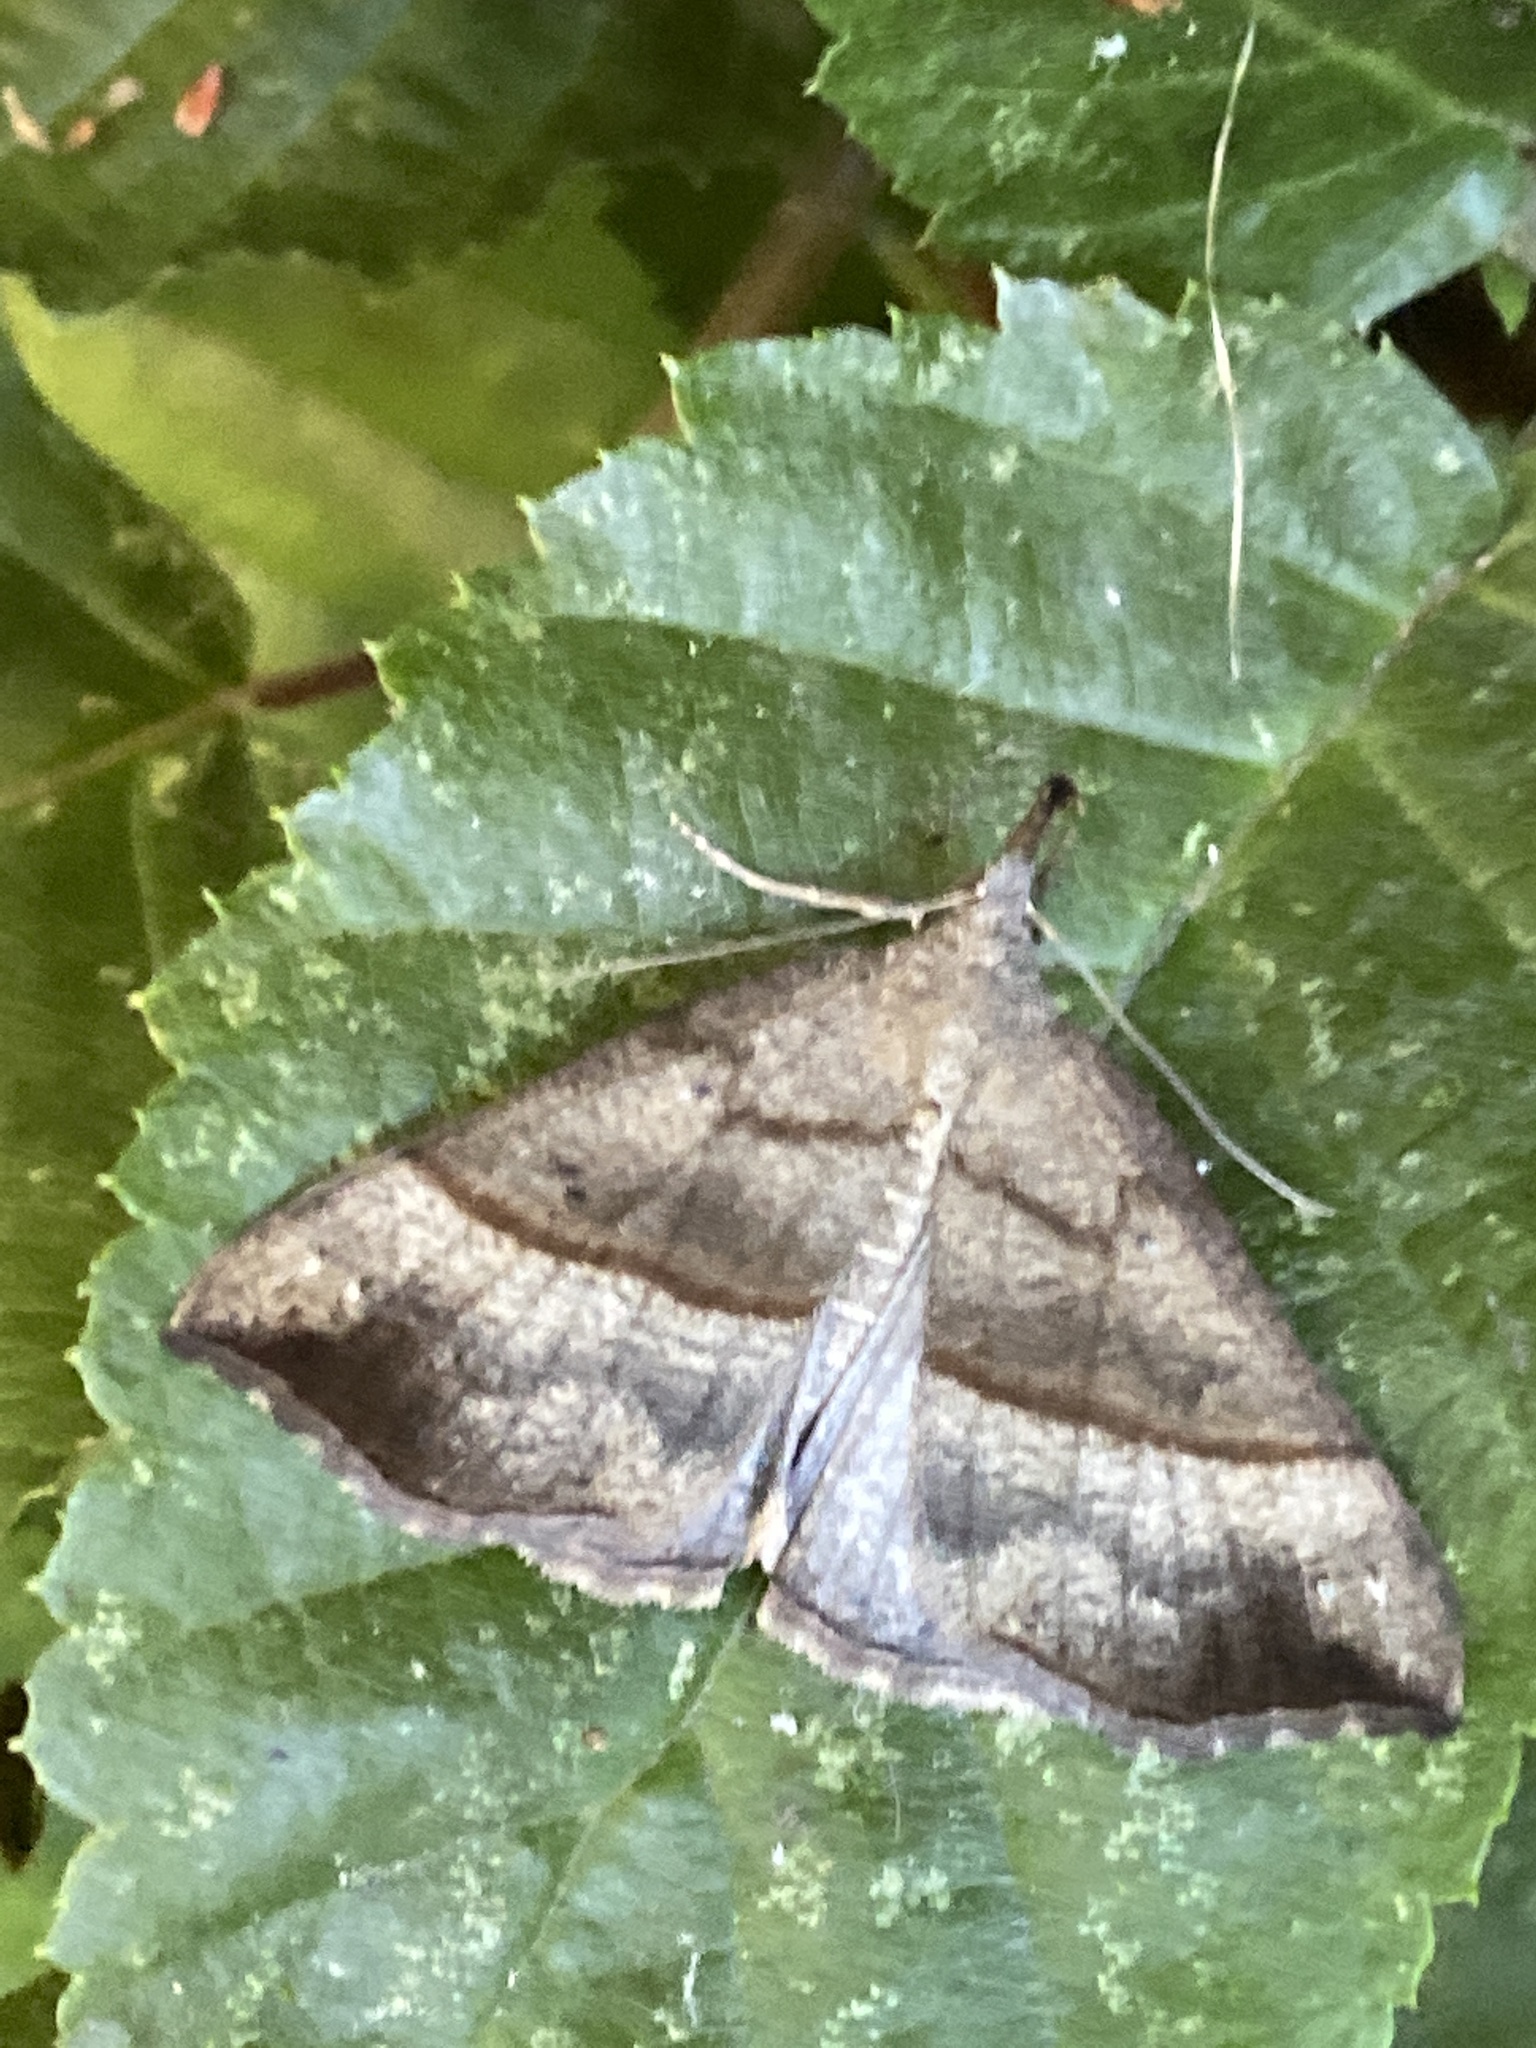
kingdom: Animalia
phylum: Arthropoda
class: Insecta
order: Lepidoptera
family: Erebidae
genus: Hypena
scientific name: Hypena proboscidalis
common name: Snout
